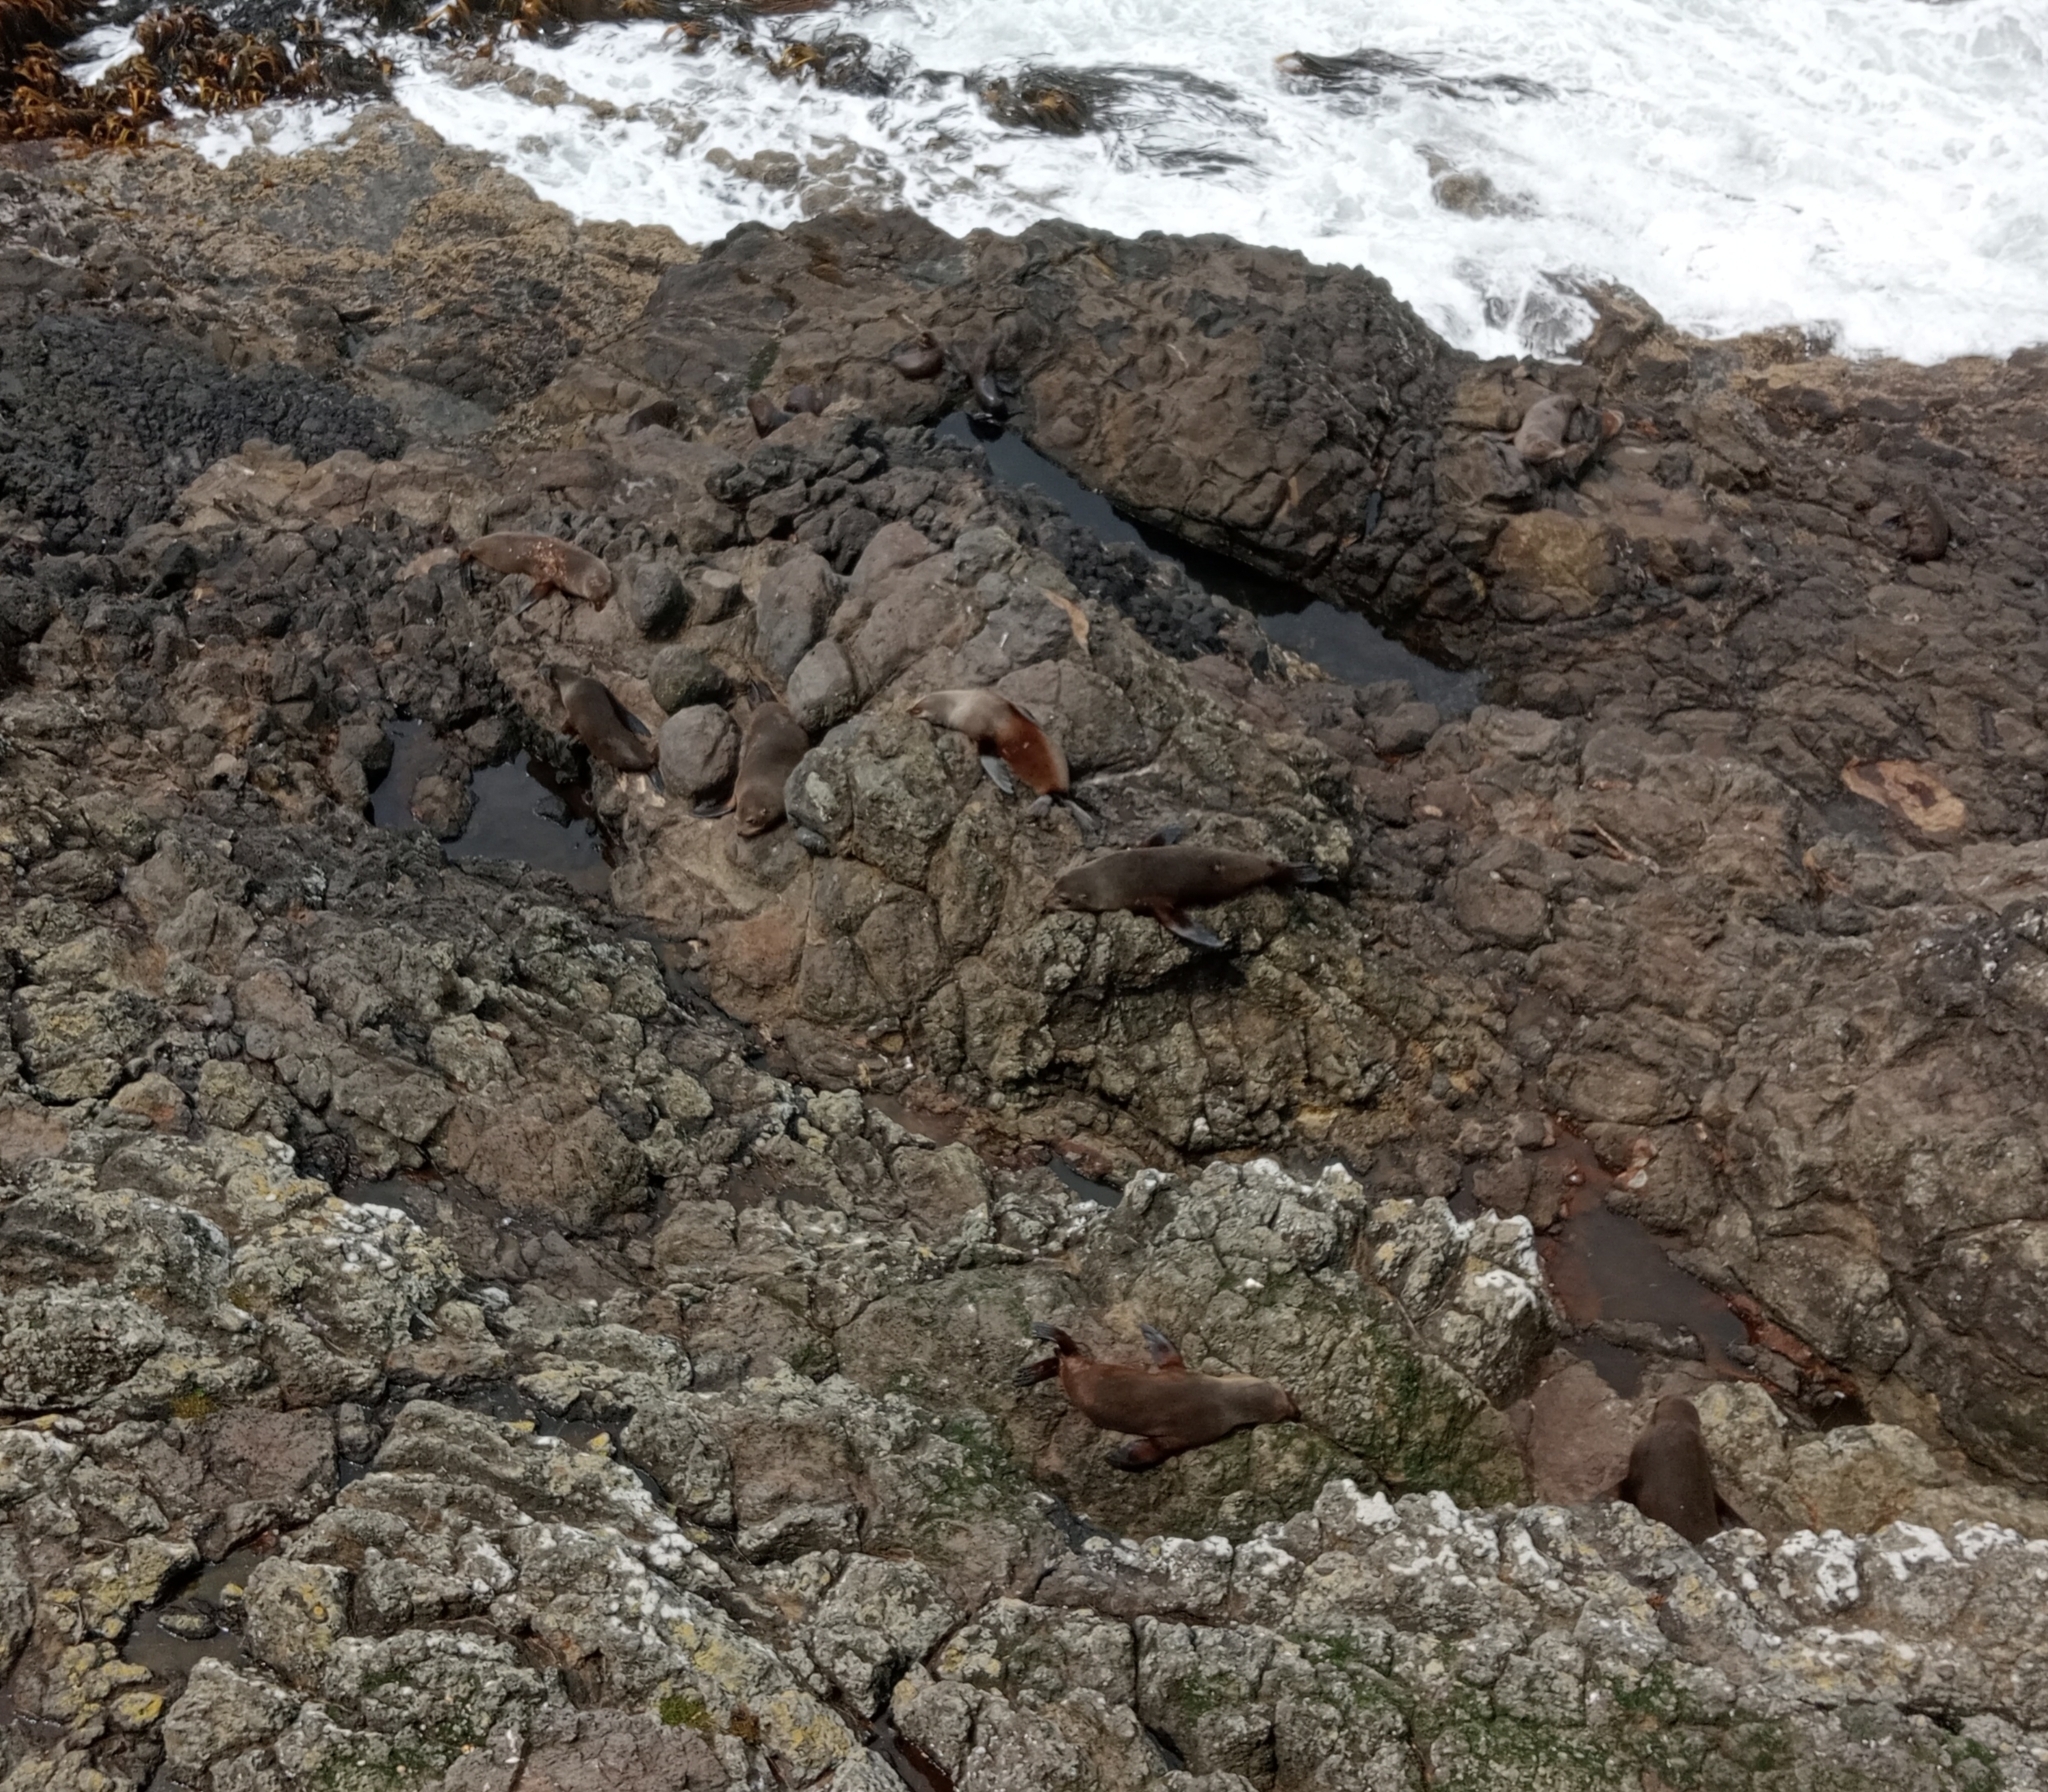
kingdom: Animalia
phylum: Chordata
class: Mammalia
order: Carnivora
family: Otariidae
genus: Arctocephalus
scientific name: Arctocephalus forsteri
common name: New zealand fur seal
